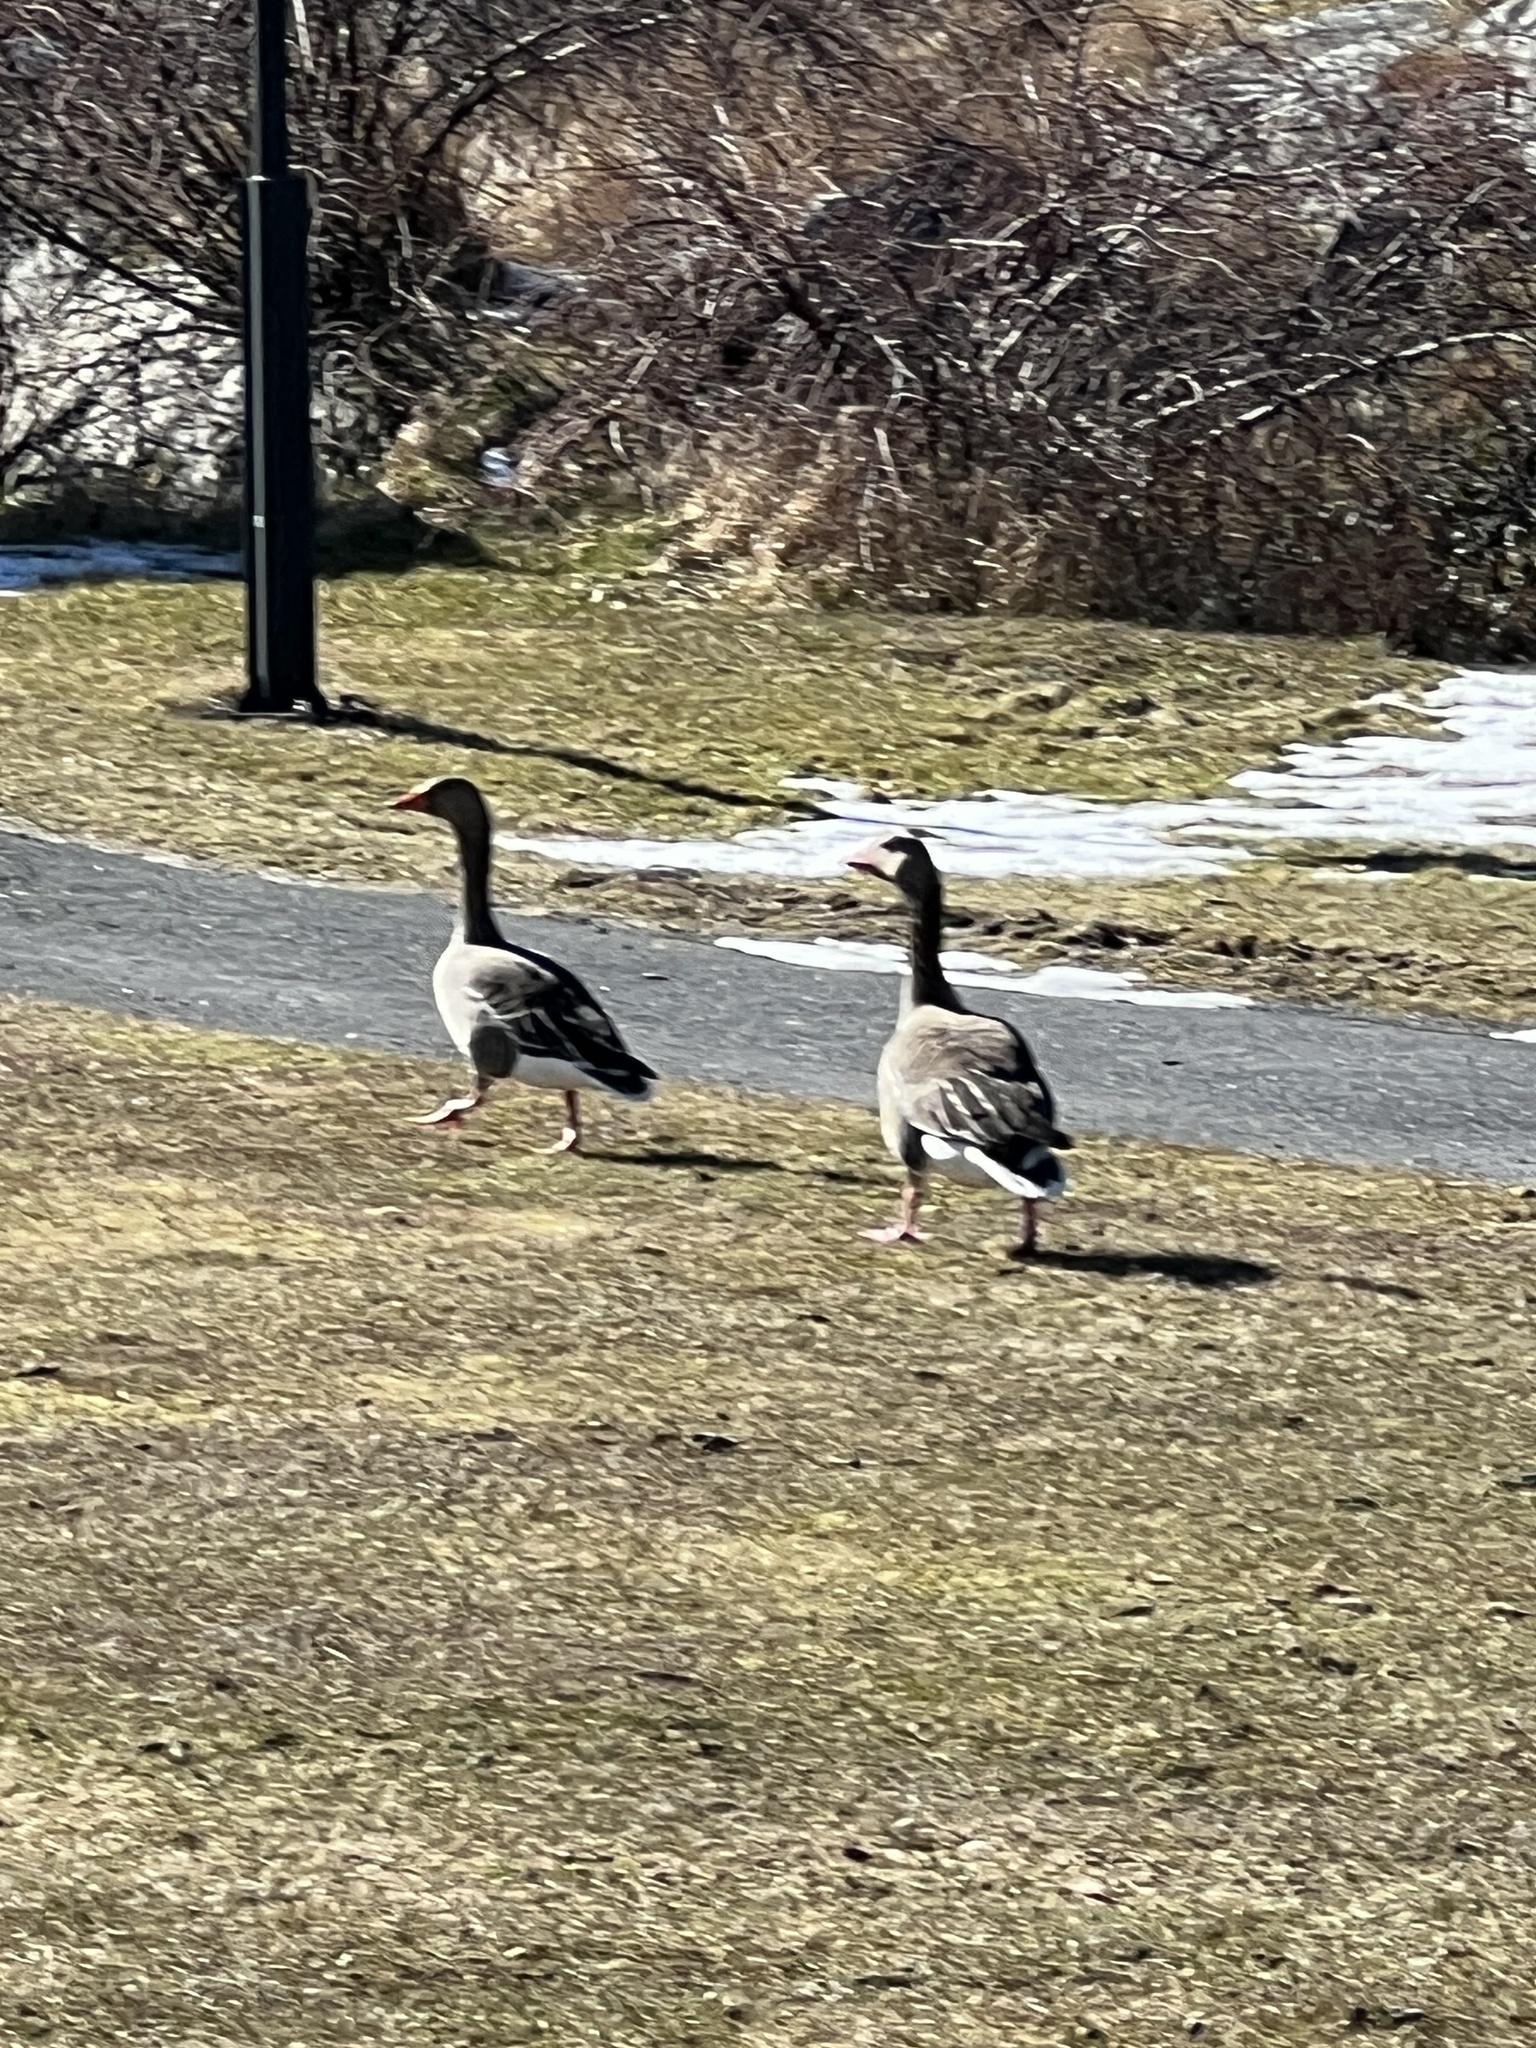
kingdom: Animalia
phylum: Chordata
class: Aves
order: Anseriformes
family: Anatidae
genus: Anser
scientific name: Anser anser
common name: Greylag goose
